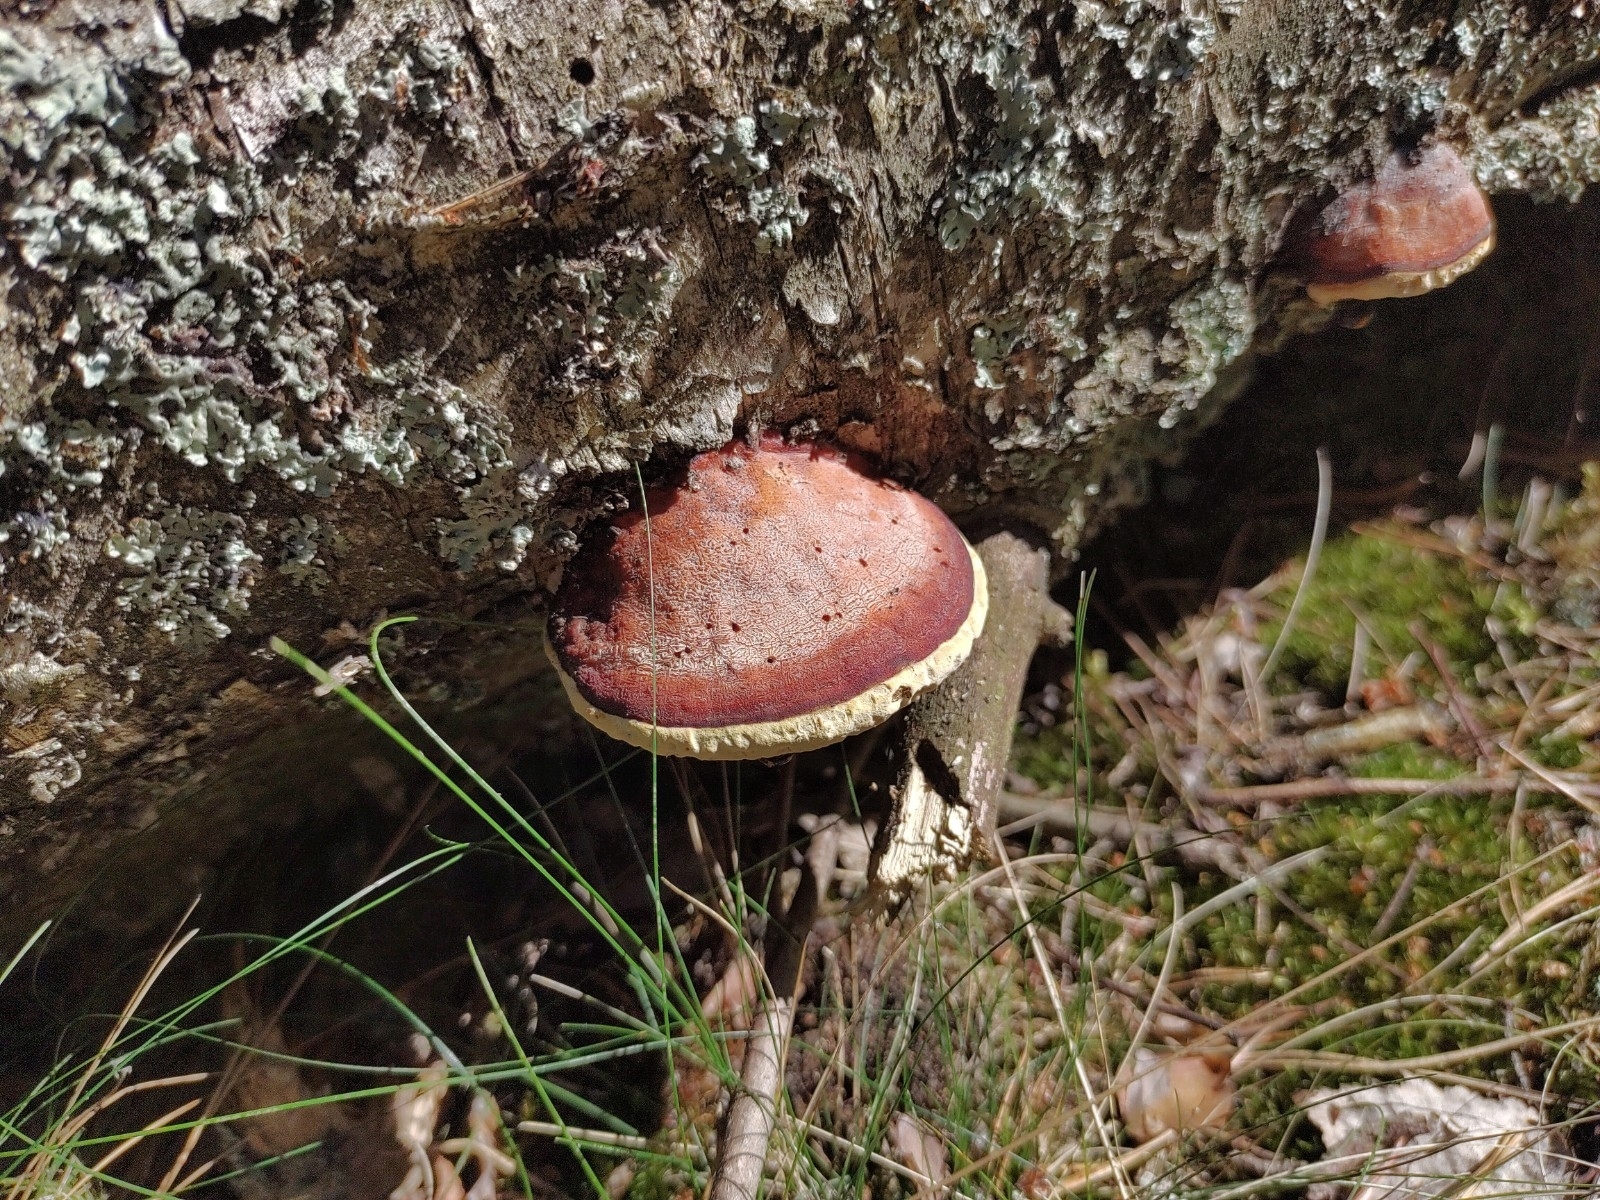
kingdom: Fungi
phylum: Basidiomycota
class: Agaricomycetes
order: Polyporales
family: Fomitopsidaceae
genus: Fomitopsis
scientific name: Fomitopsis pinicola
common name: Red-belted bracket
